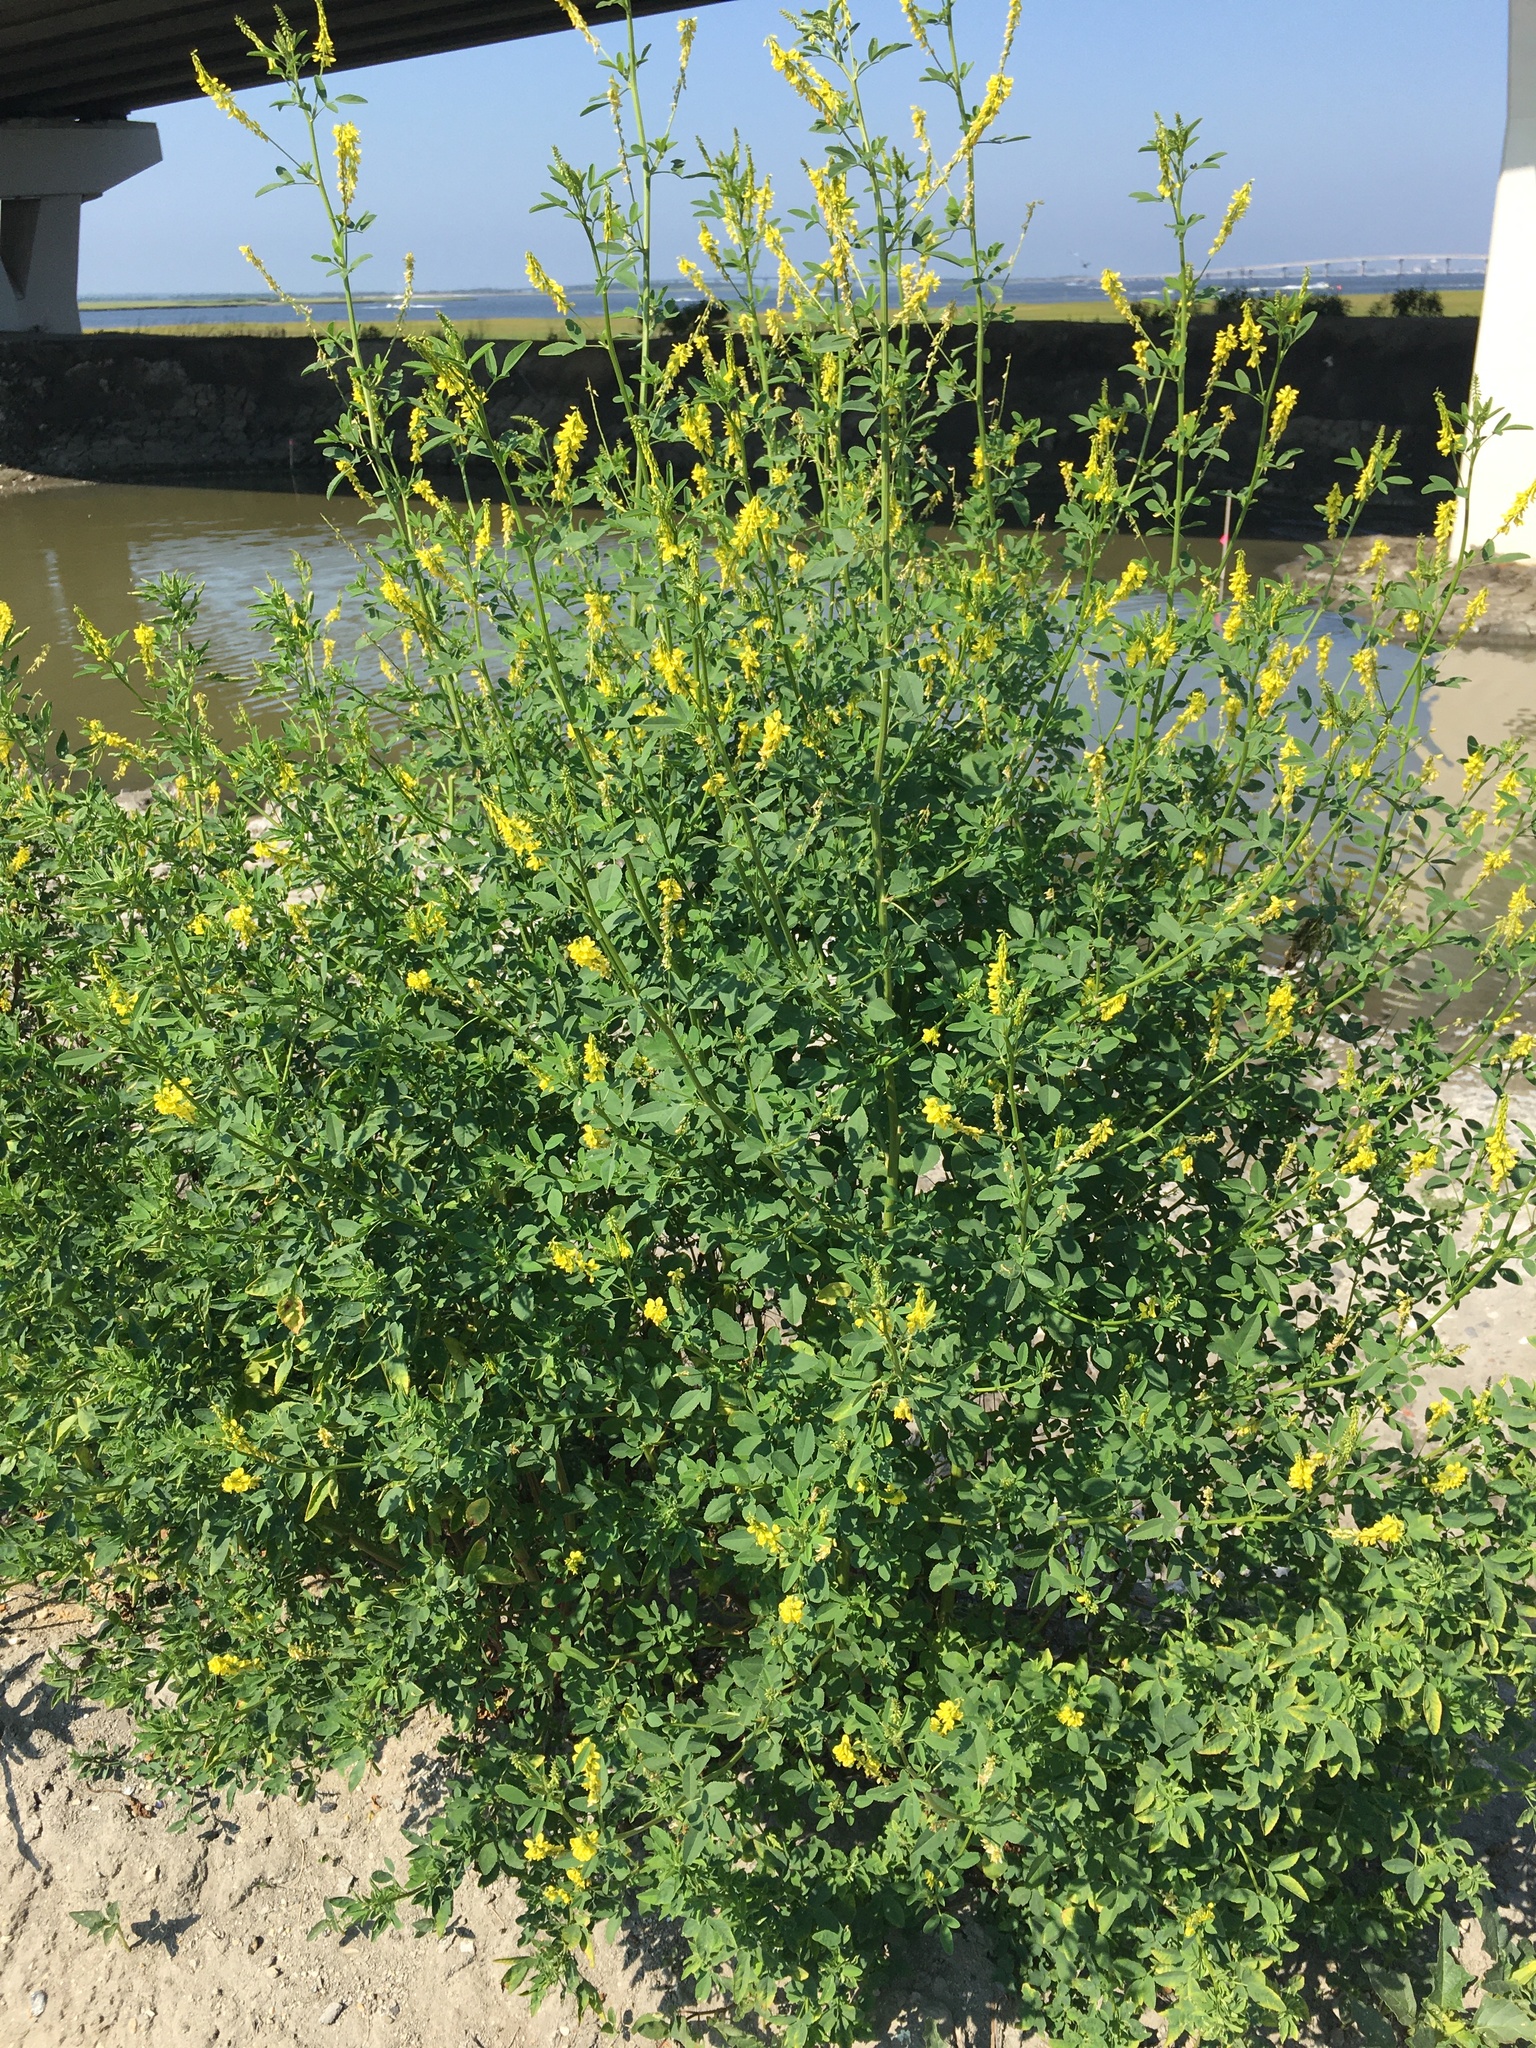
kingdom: Plantae
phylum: Tracheophyta
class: Magnoliopsida
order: Fabales
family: Fabaceae
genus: Melilotus
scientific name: Melilotus officinalis
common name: Sweetclover
